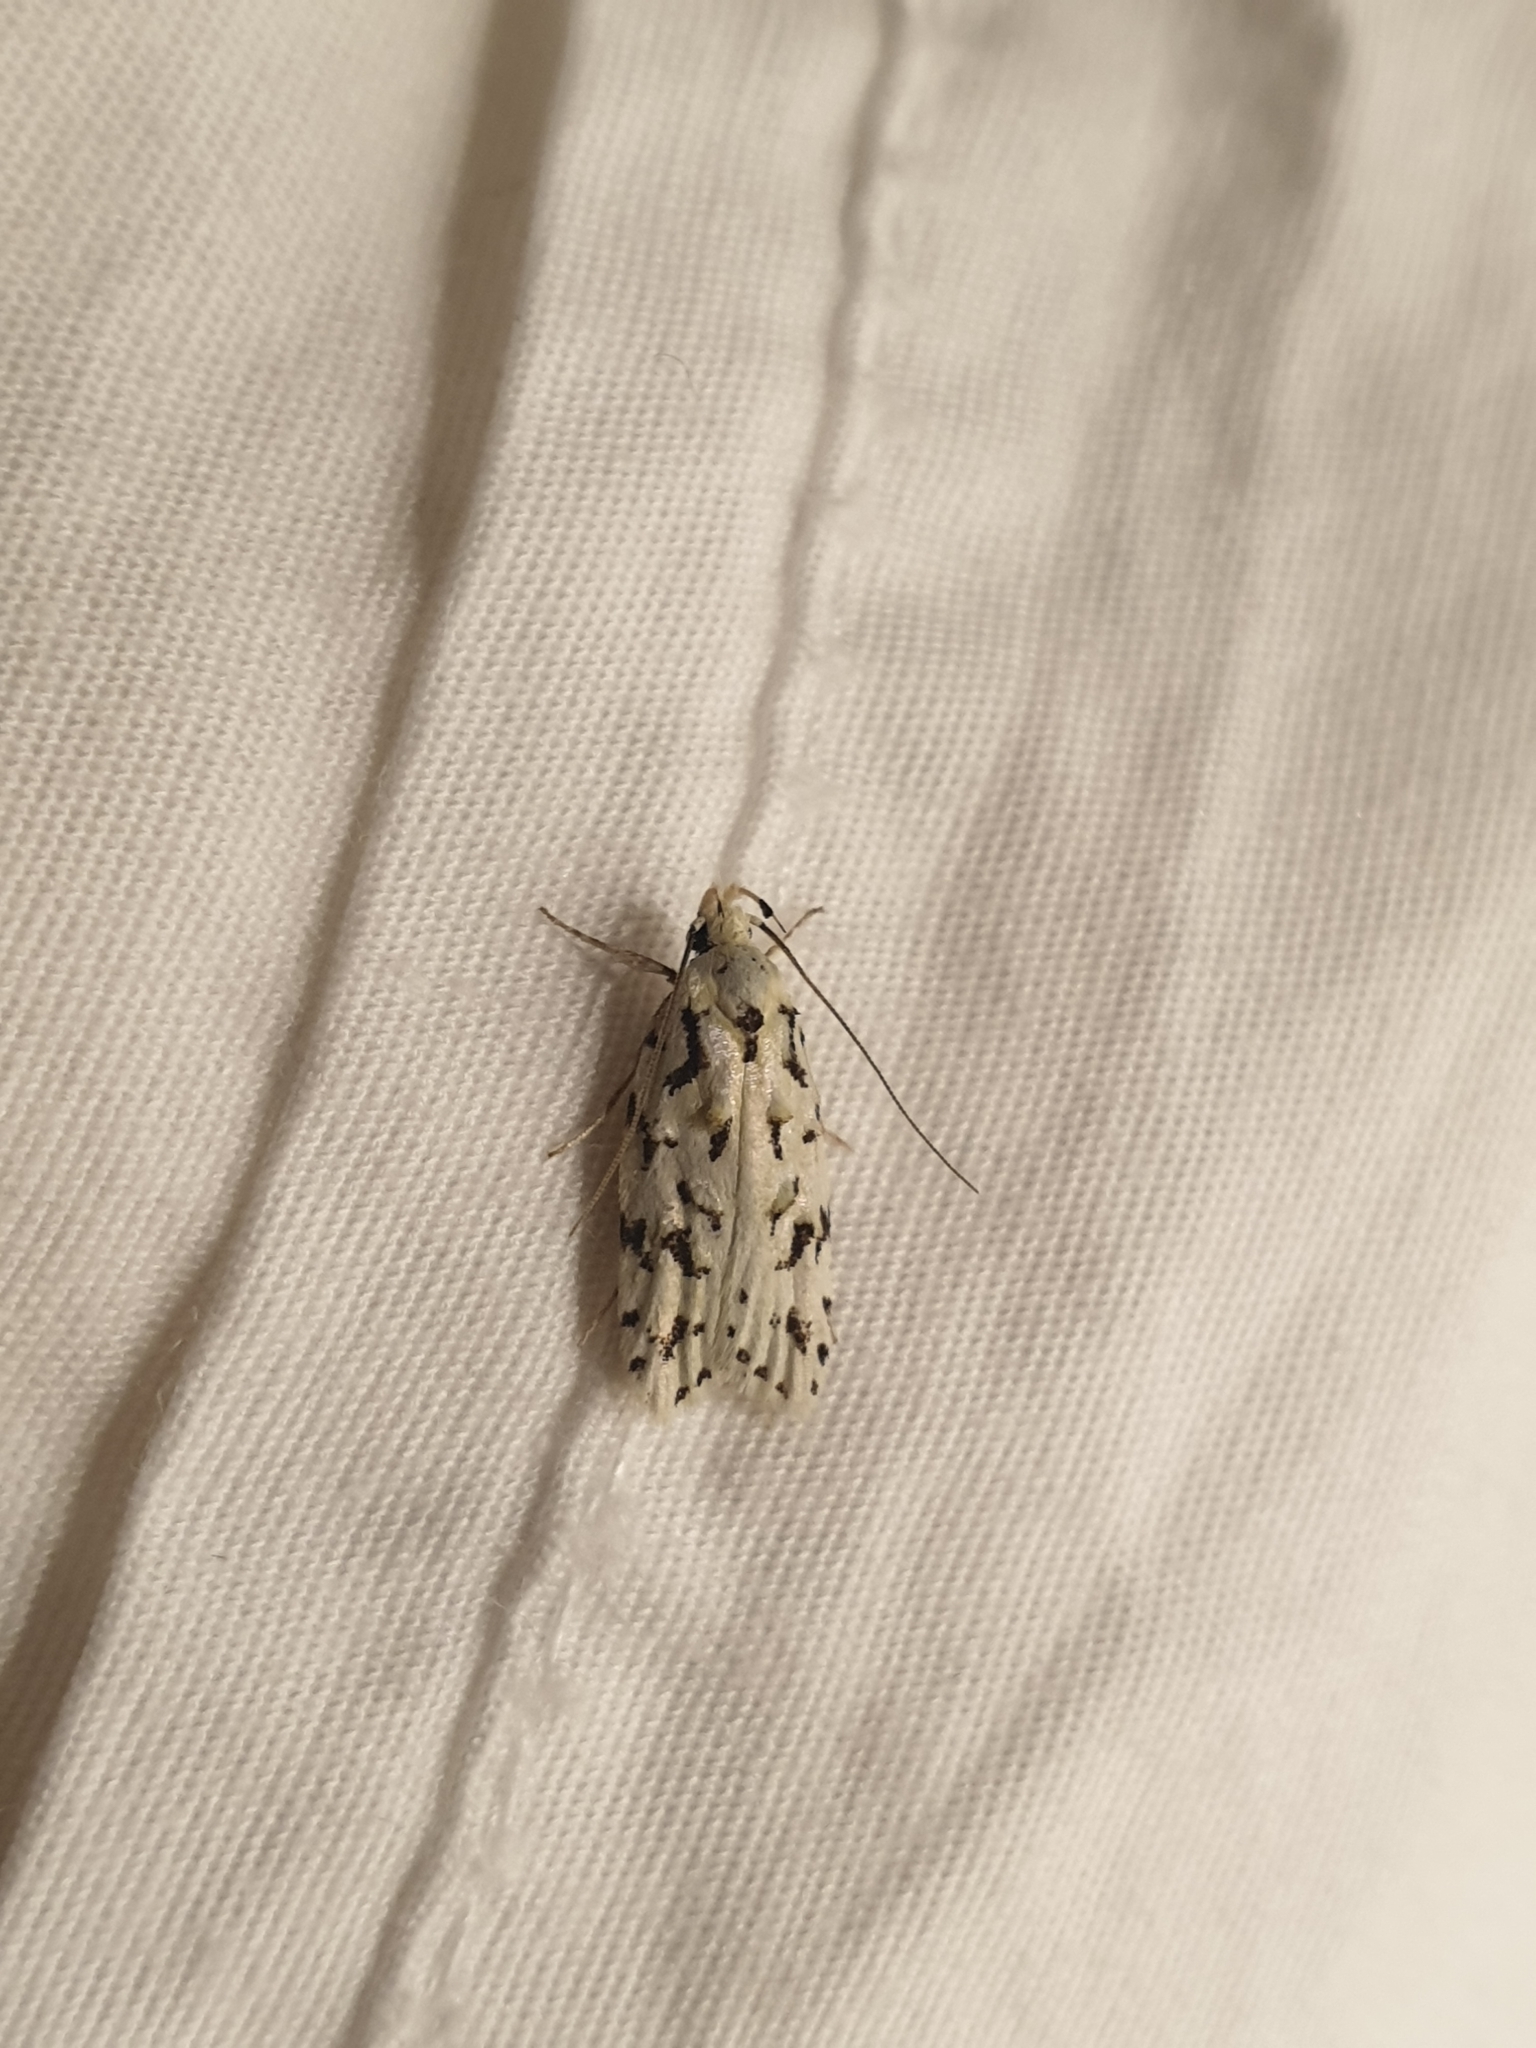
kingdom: Animalia
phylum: Arthropoda
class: Insecta
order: Lepidoptera
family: Oecophoridae
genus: Izatha
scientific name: Izatha peroneanella
